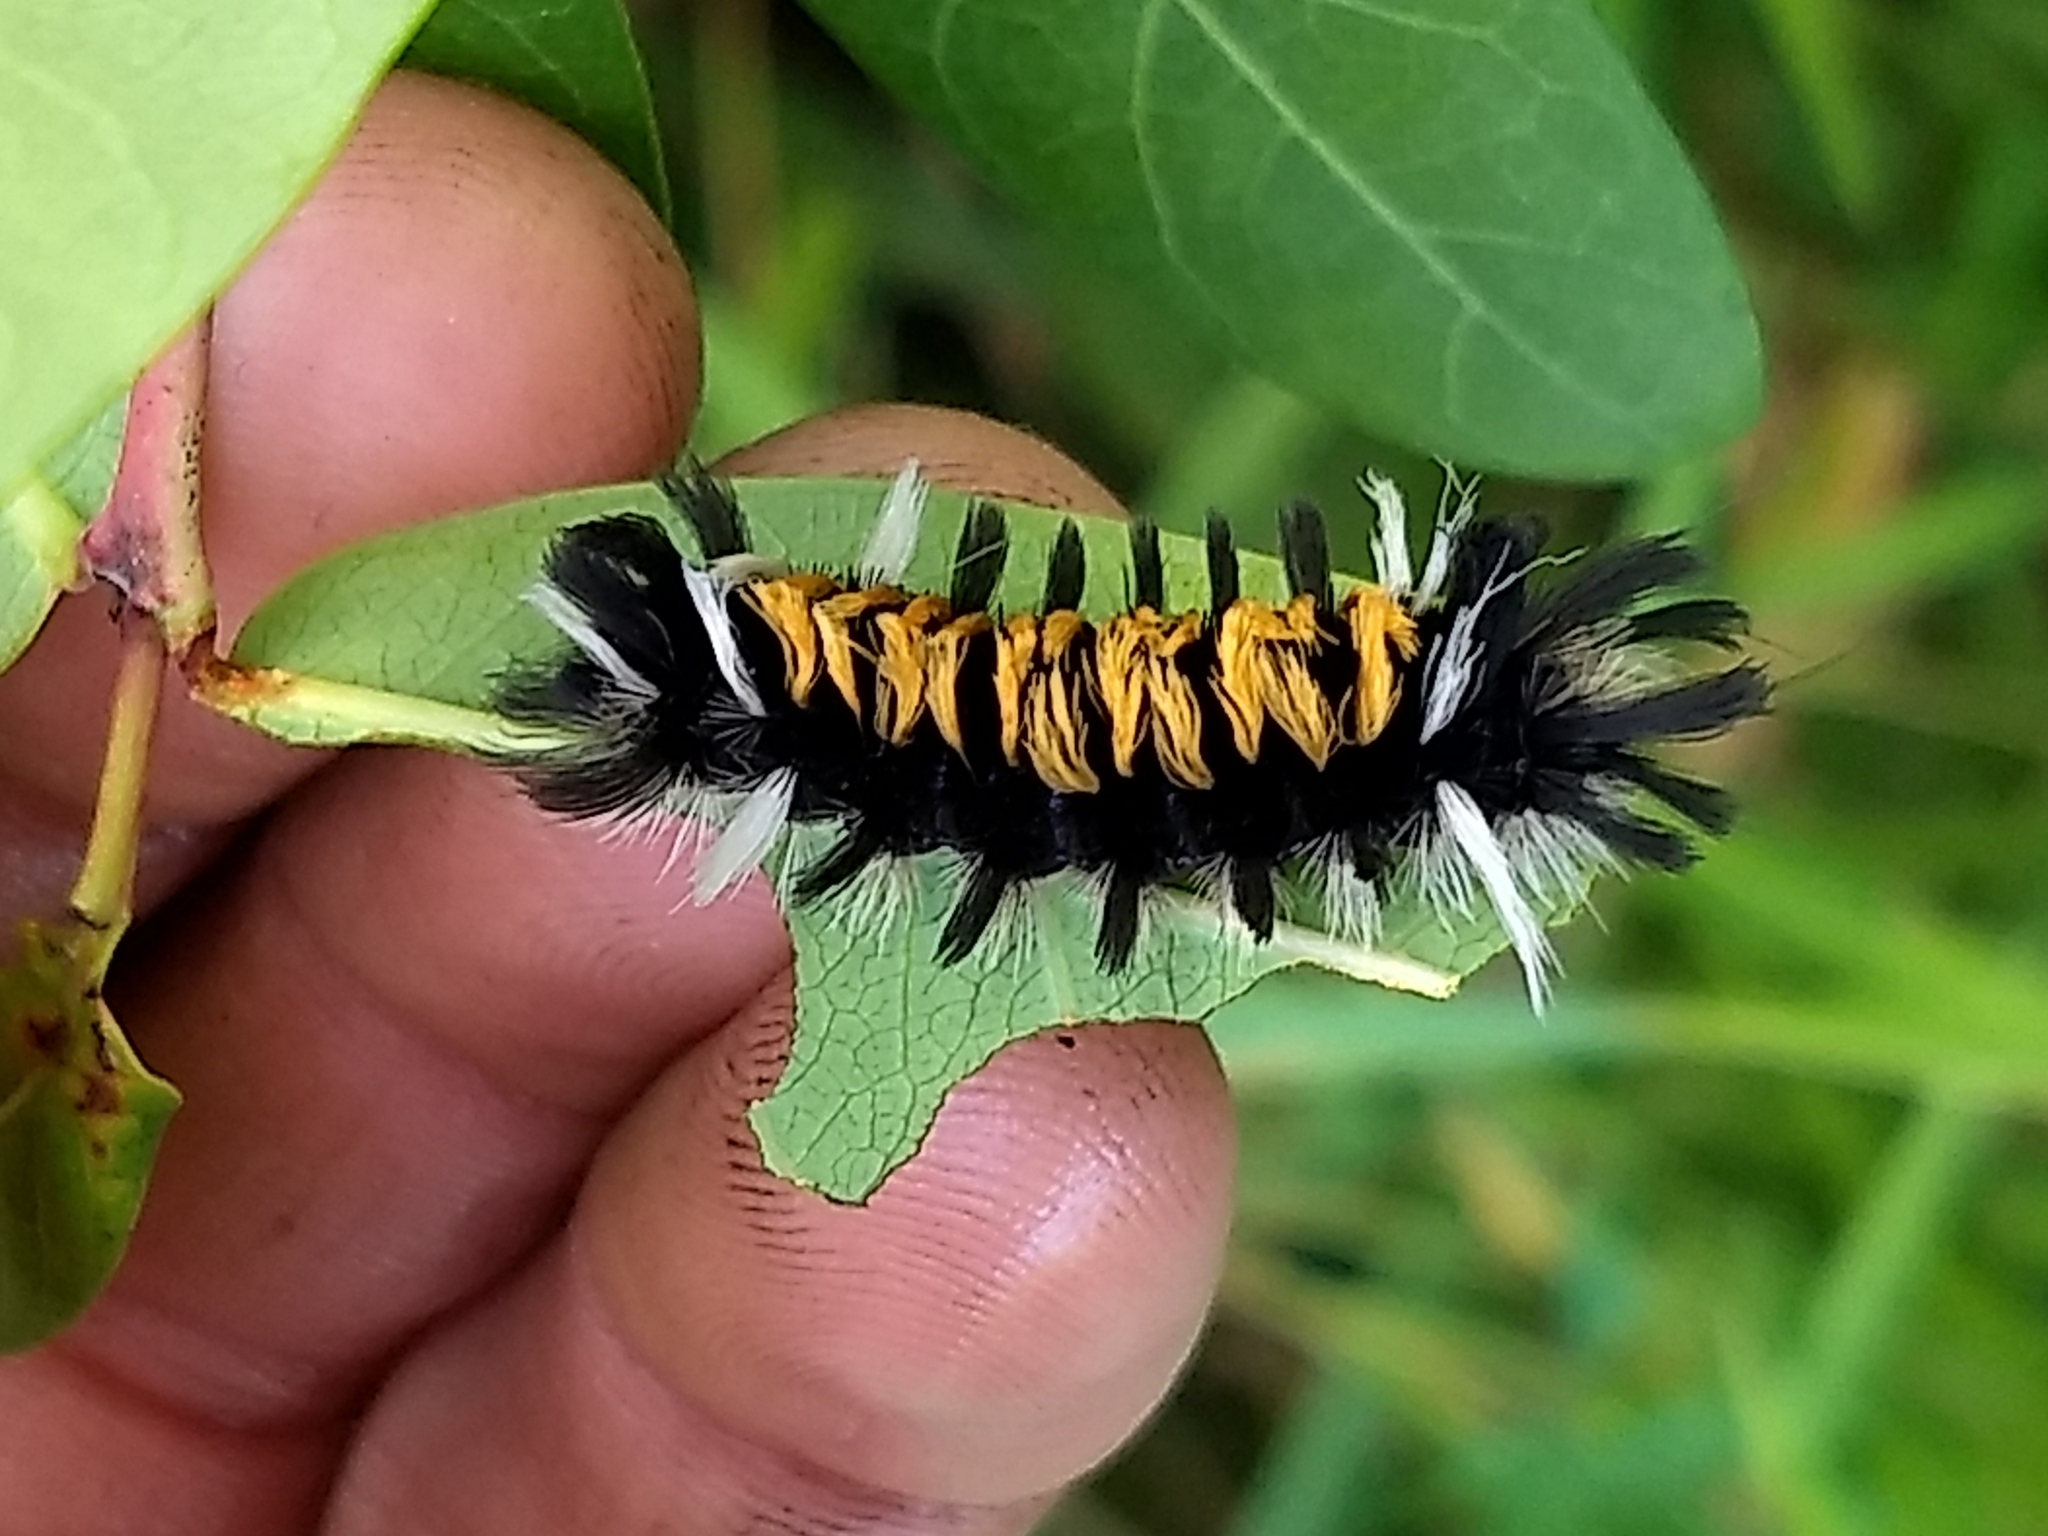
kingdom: Animalia
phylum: Arthropoda
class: Insecta
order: Lepidoptera
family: Erebidae
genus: Euchaetes
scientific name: Euchaetes egle
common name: Milkweed tussock moth
